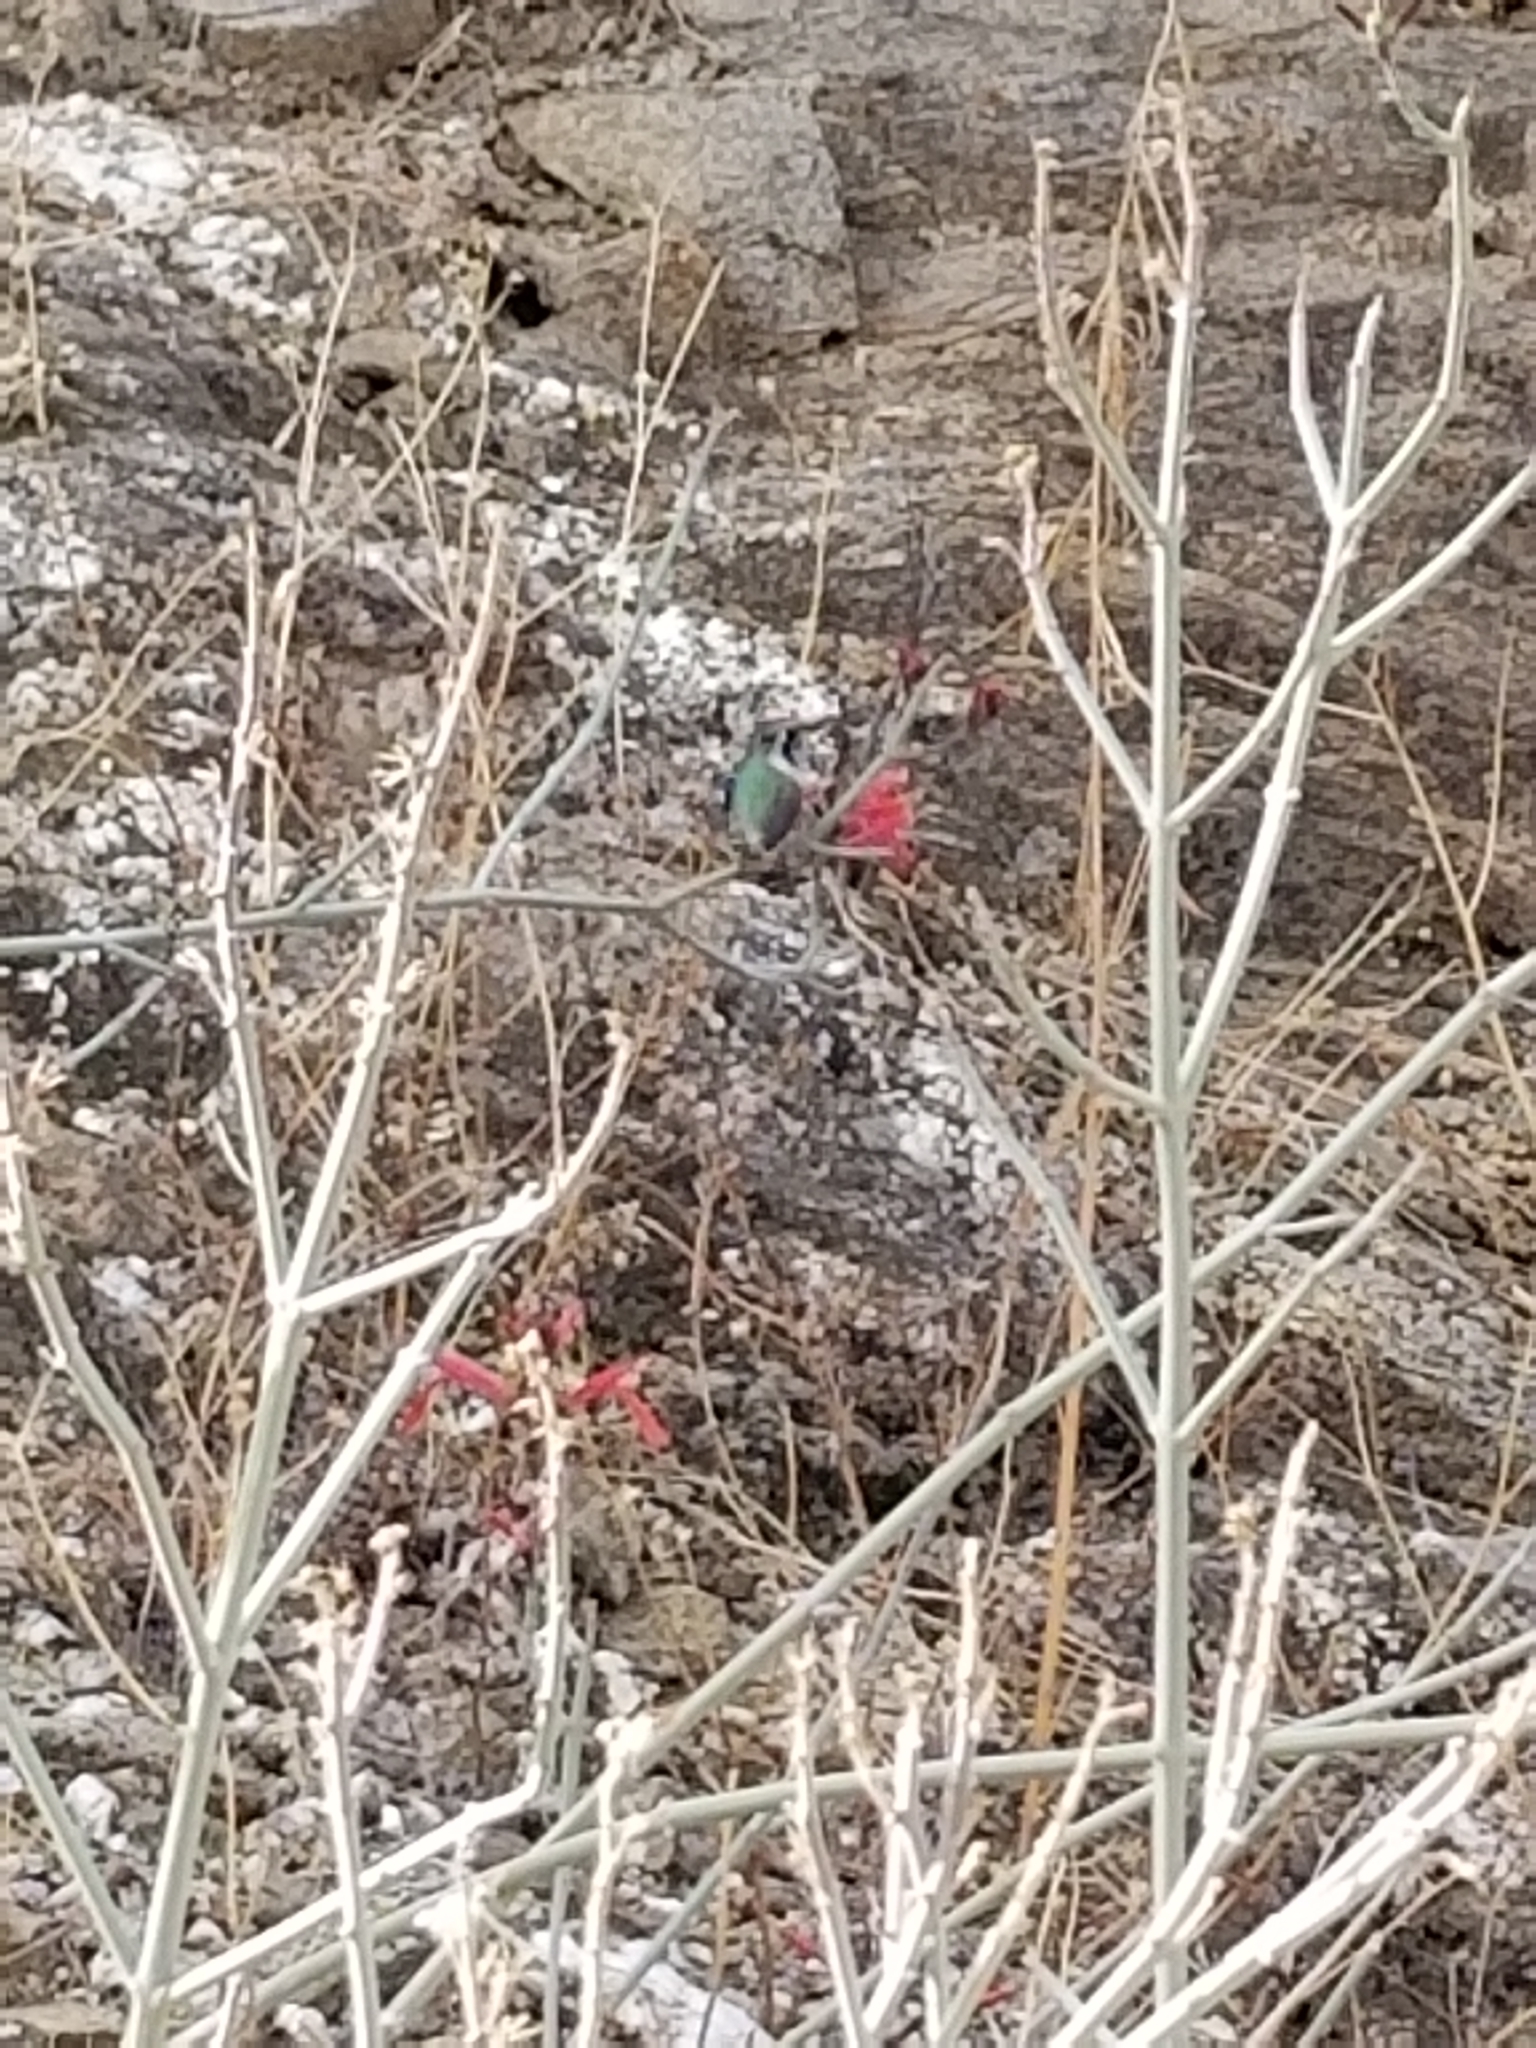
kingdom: Plantae
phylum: Tracheophyta
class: Magnoliopsida
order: Lamiales
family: Acanthaceae
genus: Justicia
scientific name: Justicia californica
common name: Chuparosa-honeysuckle
